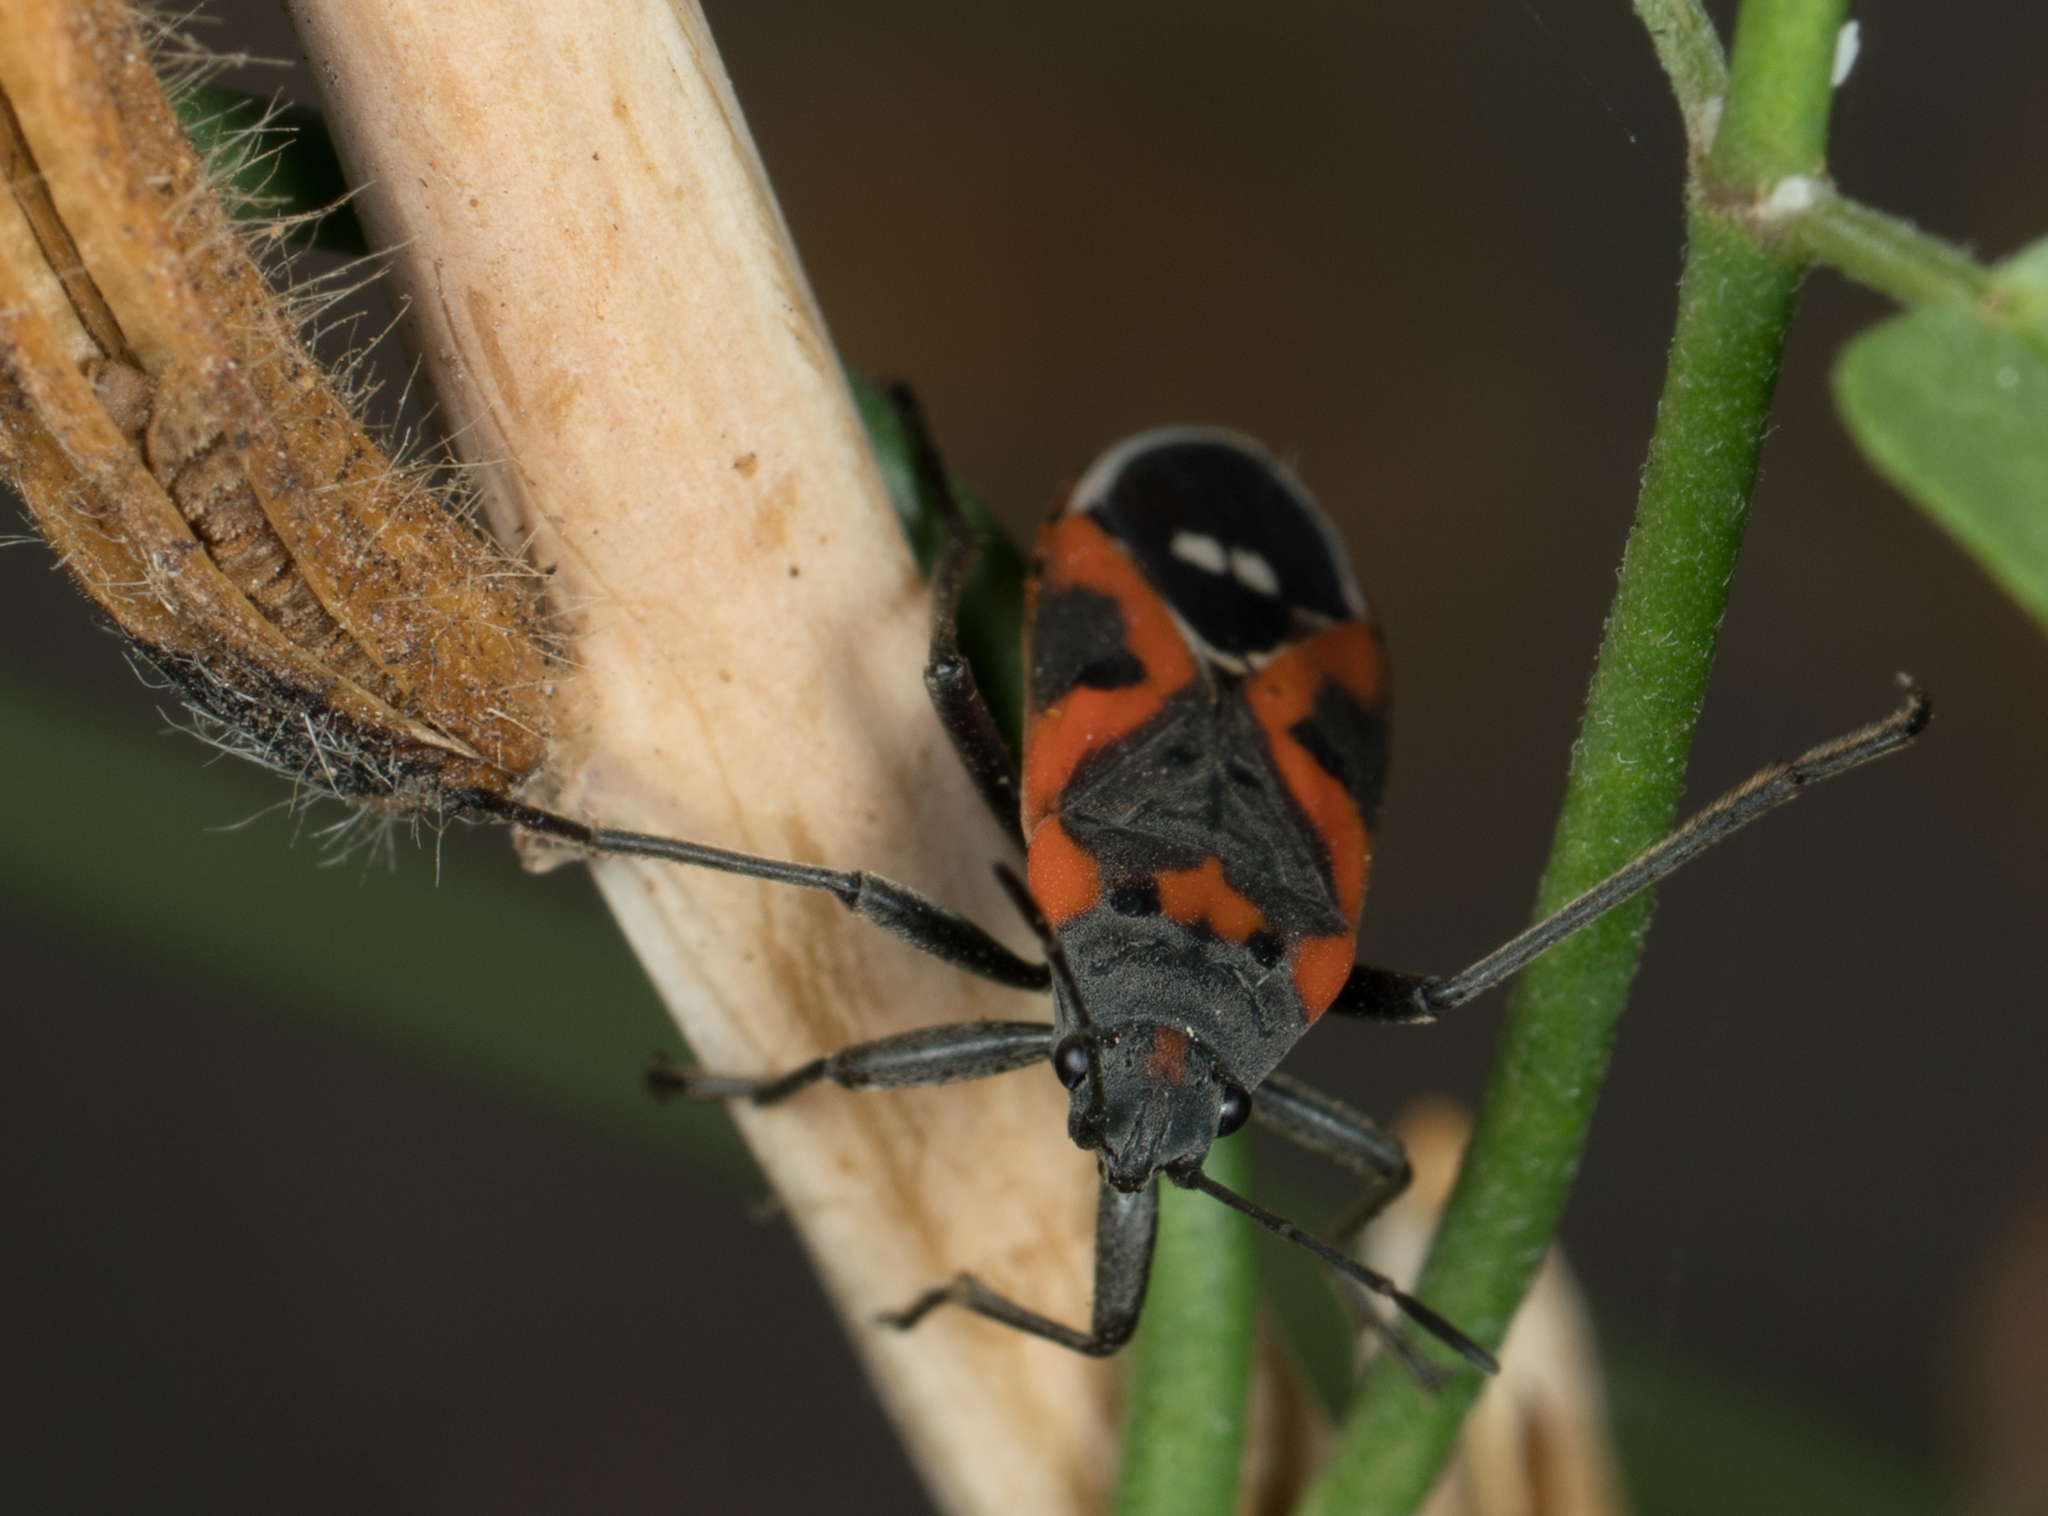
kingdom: Animalia
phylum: Arthropoda
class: Insecta
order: Hemiptera
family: Lygaeidae
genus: Lygaeus
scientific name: Lygaeus kalmii
